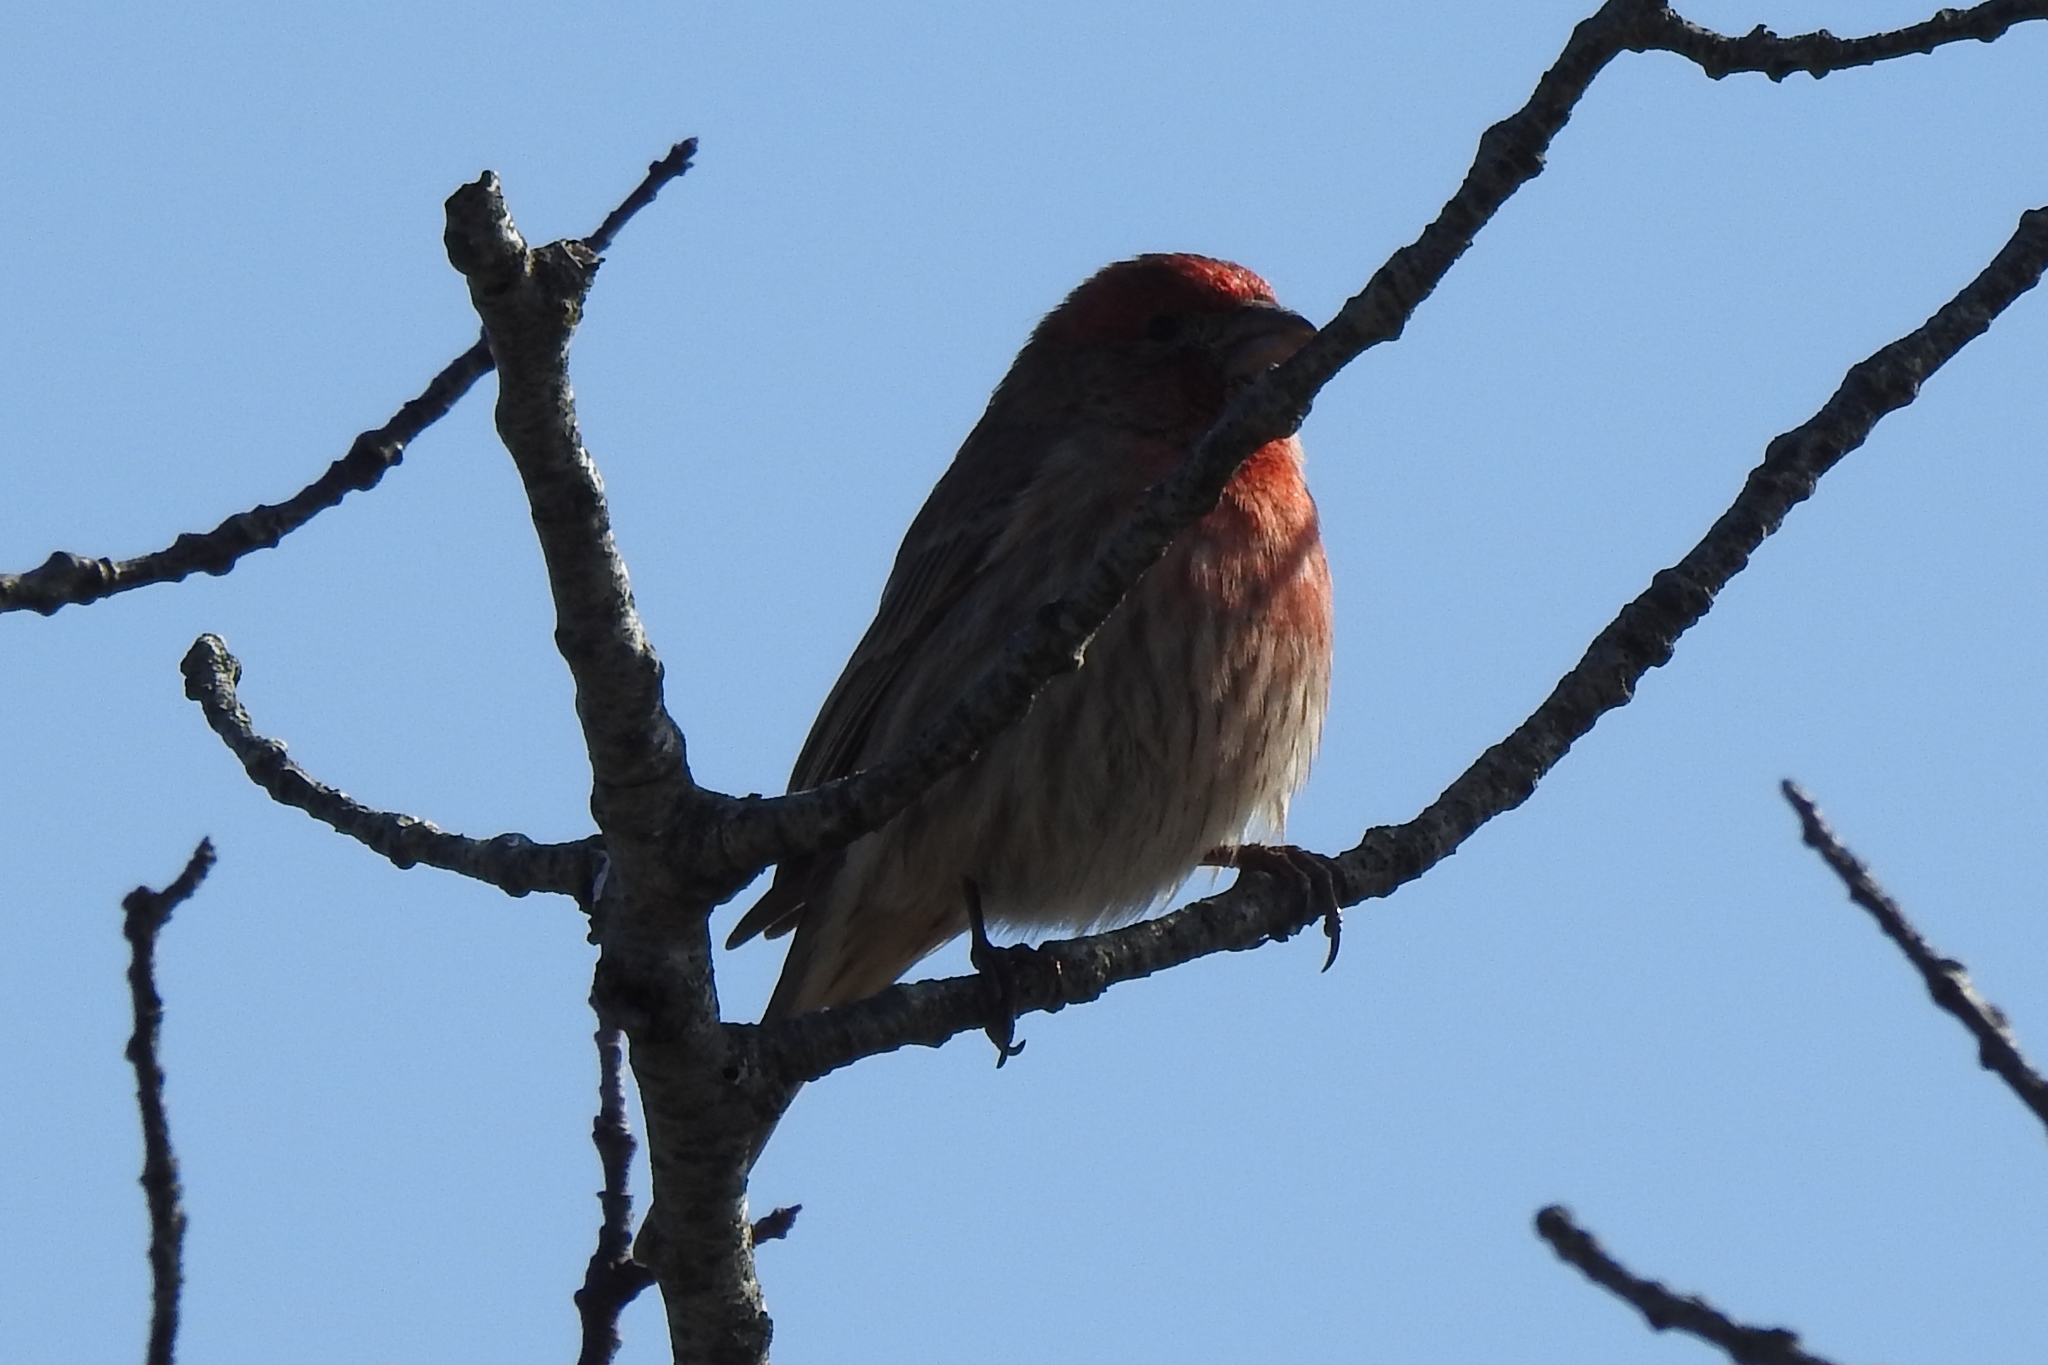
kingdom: Animalia
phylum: Chordata
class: Aves
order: Passeriformes
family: Fringillidae
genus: Haemorhous
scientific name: Haemorhous mexicanus
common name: House finch
